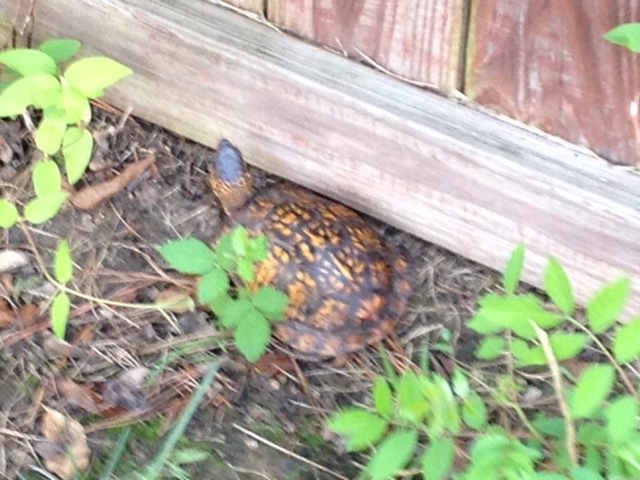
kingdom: Animalia
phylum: Chordata
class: Testudines
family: Emydidae
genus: Terrapene
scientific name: Terrapene carolina
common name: Common box turtle
